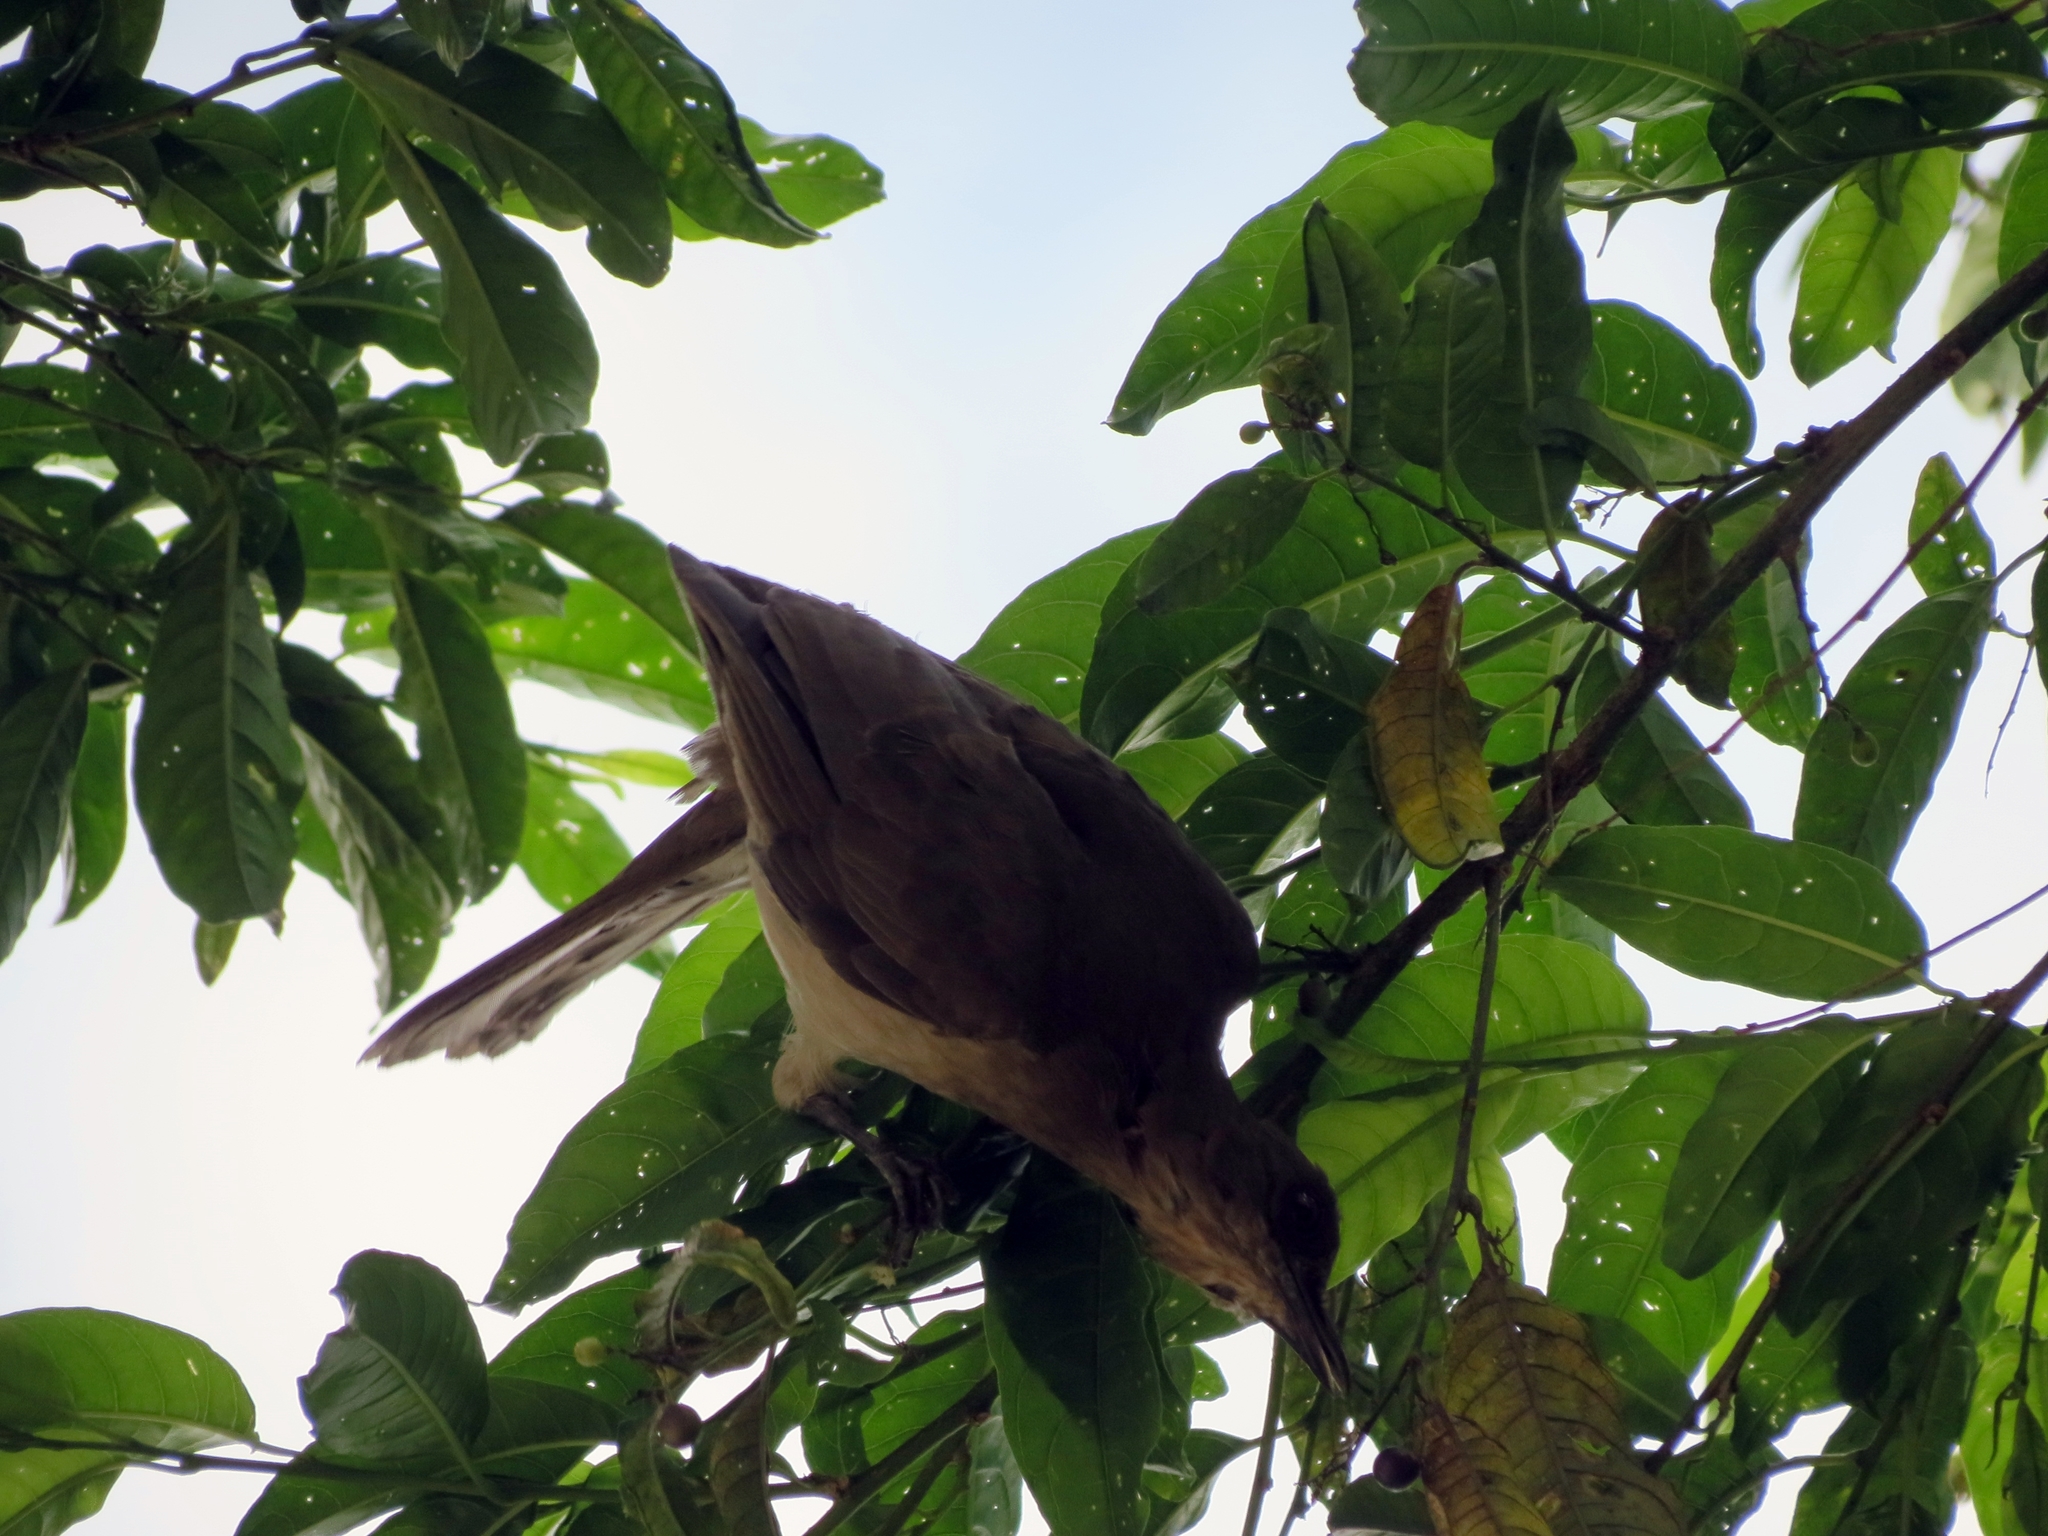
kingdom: Animalia
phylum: Chordata
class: Aves
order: Passeriformes
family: Turdidae
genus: Turdus
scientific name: Turdus ignobilis
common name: Black-billed thrush
